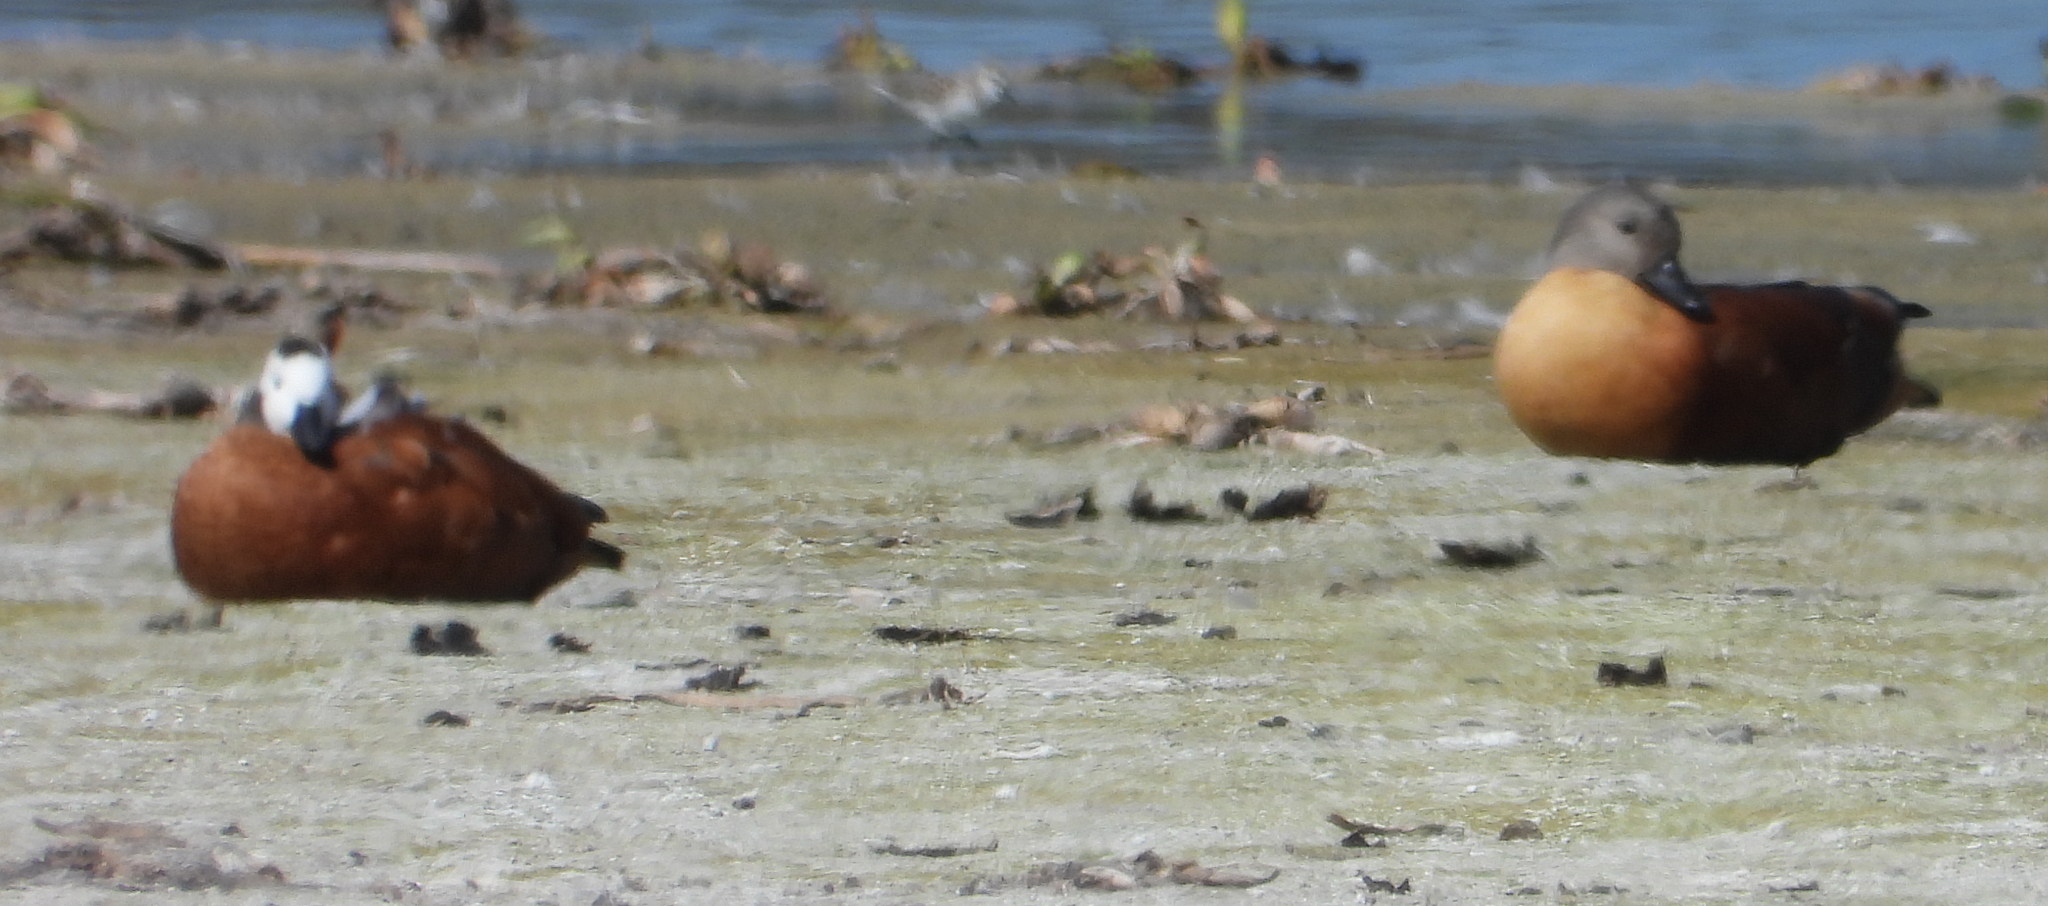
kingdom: Animalia
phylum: Chordata
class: Aves
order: Anseriformes
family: Anatidae
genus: Tadorna
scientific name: Tadorna cana
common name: South african shelduck
